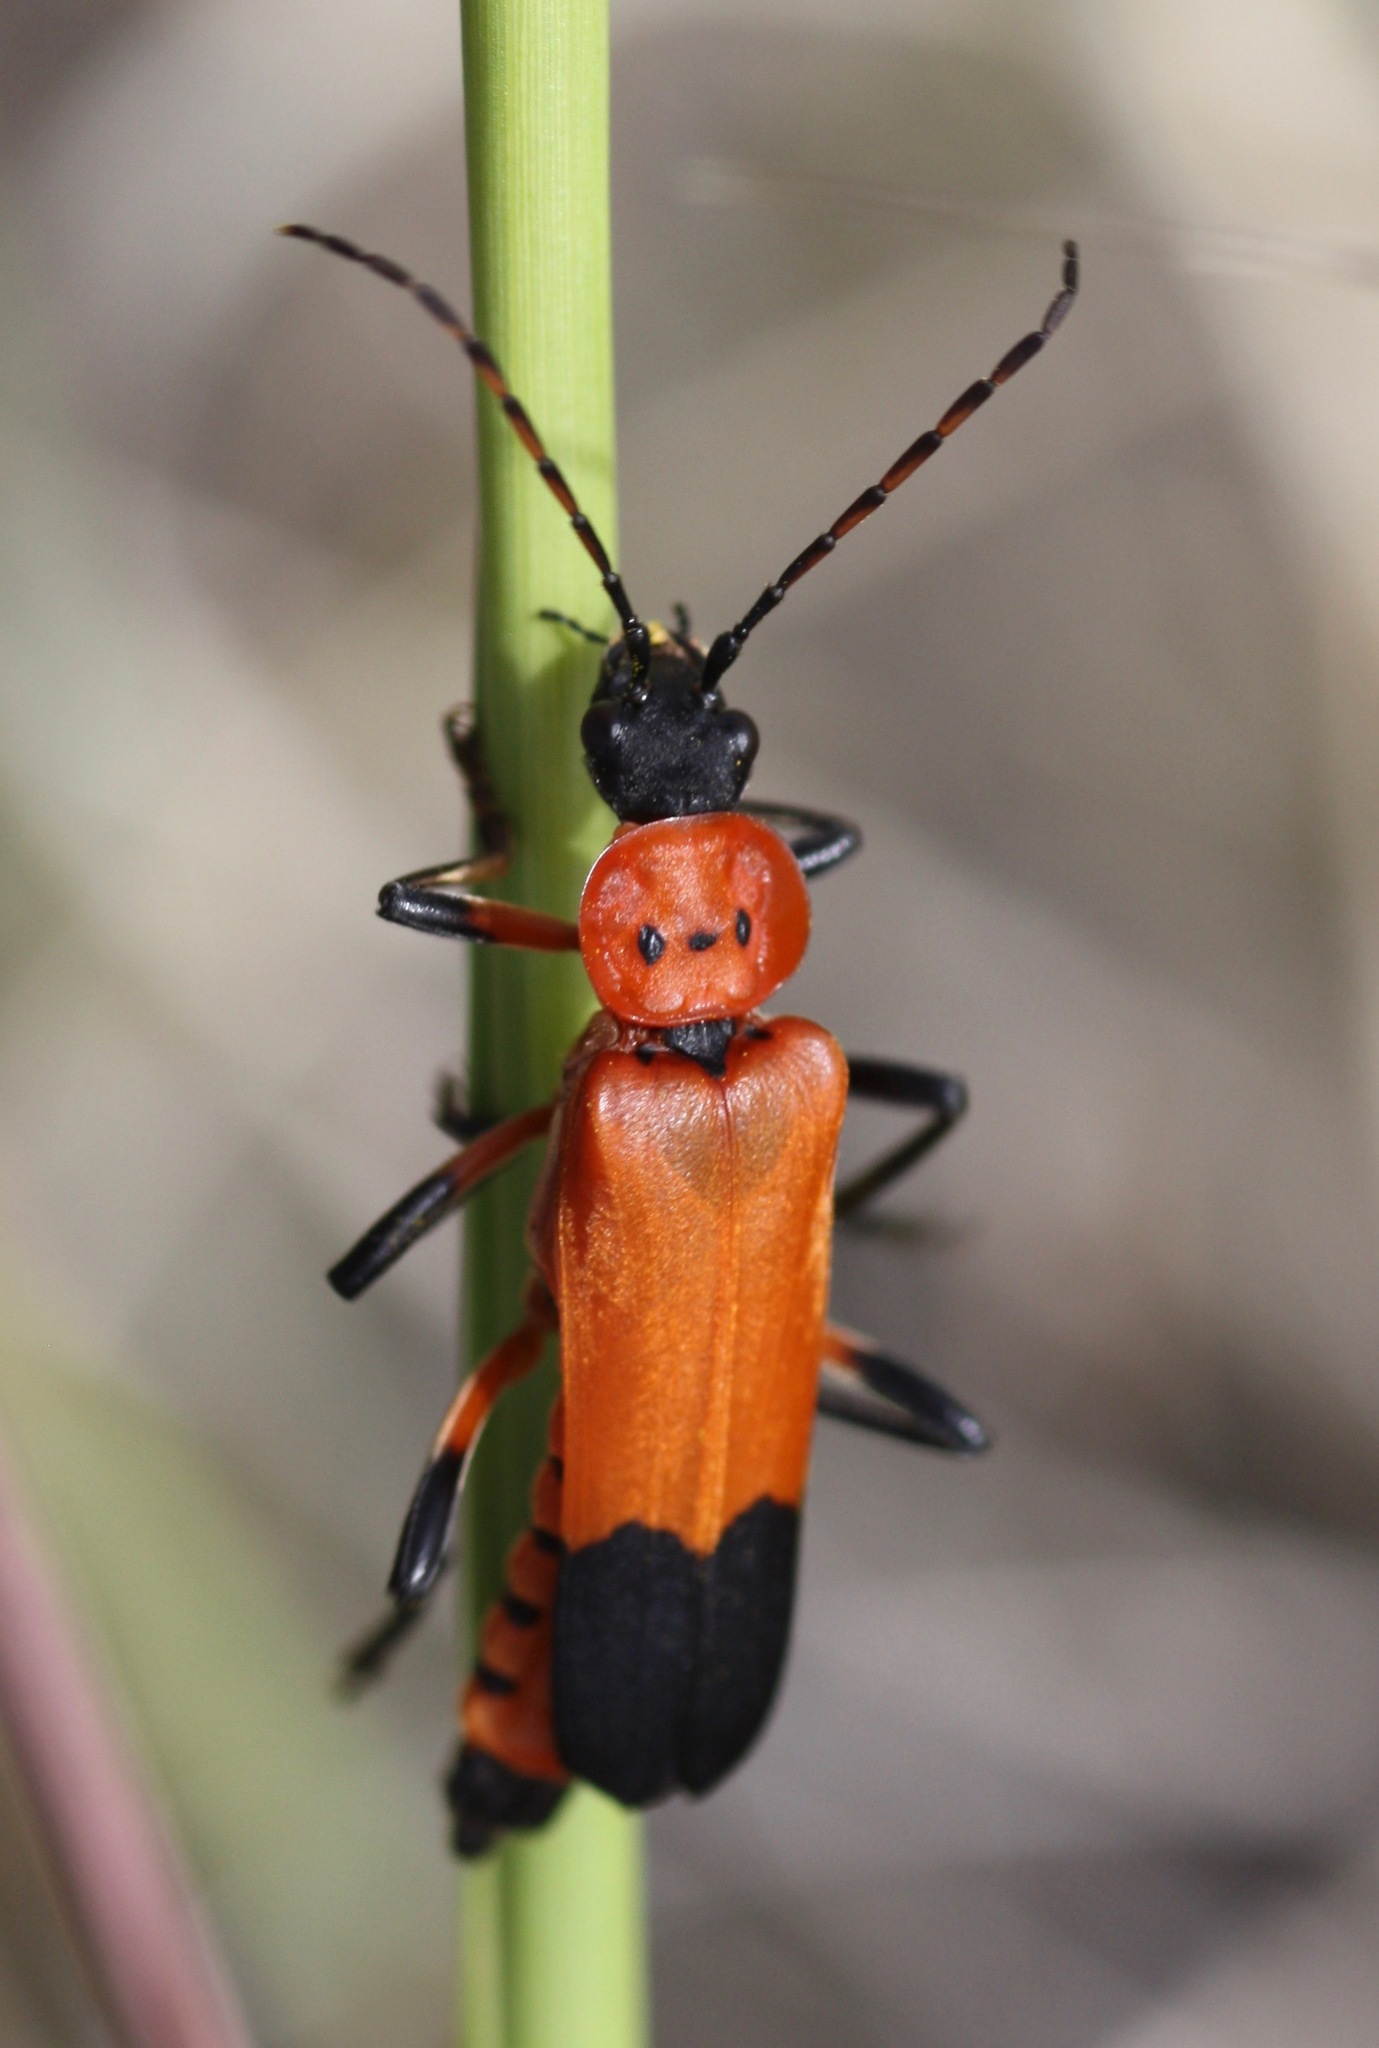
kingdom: Animalia
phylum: Arthropoda
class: Insecta
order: Coleoptera
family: Cantharidae
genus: Chauliognathus
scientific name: Chauliognathus profundus
